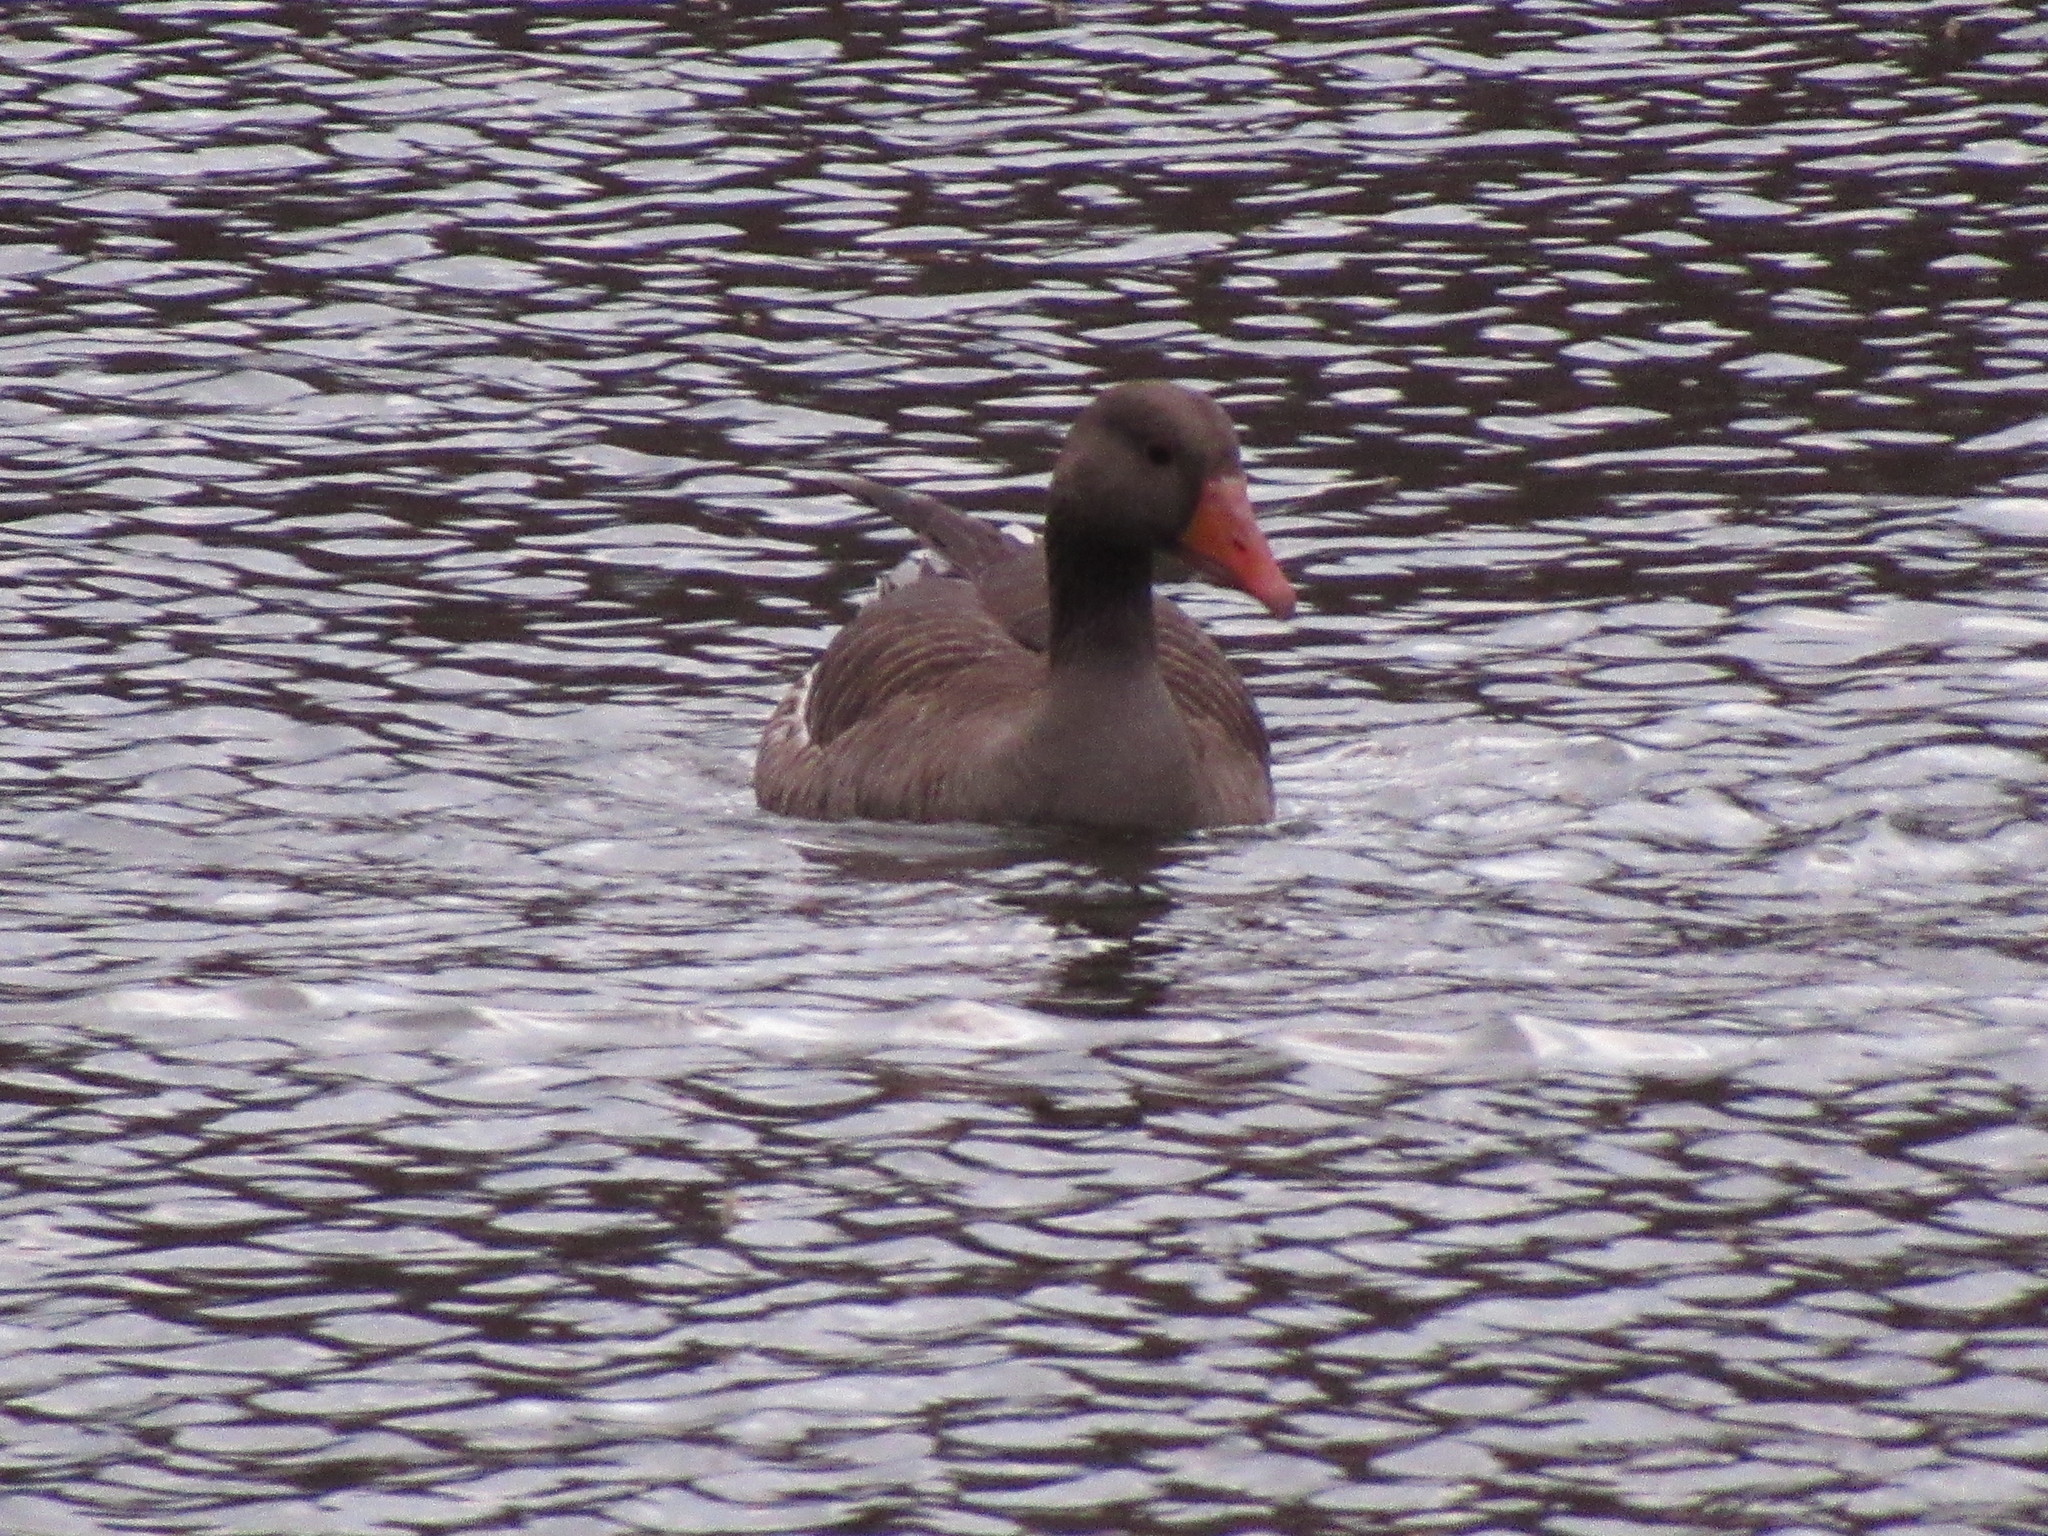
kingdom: Animalia
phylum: Chordata
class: Aves
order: Anseriformes
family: Anatidae
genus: Anser
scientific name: Anser anser
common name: Greylag goose
